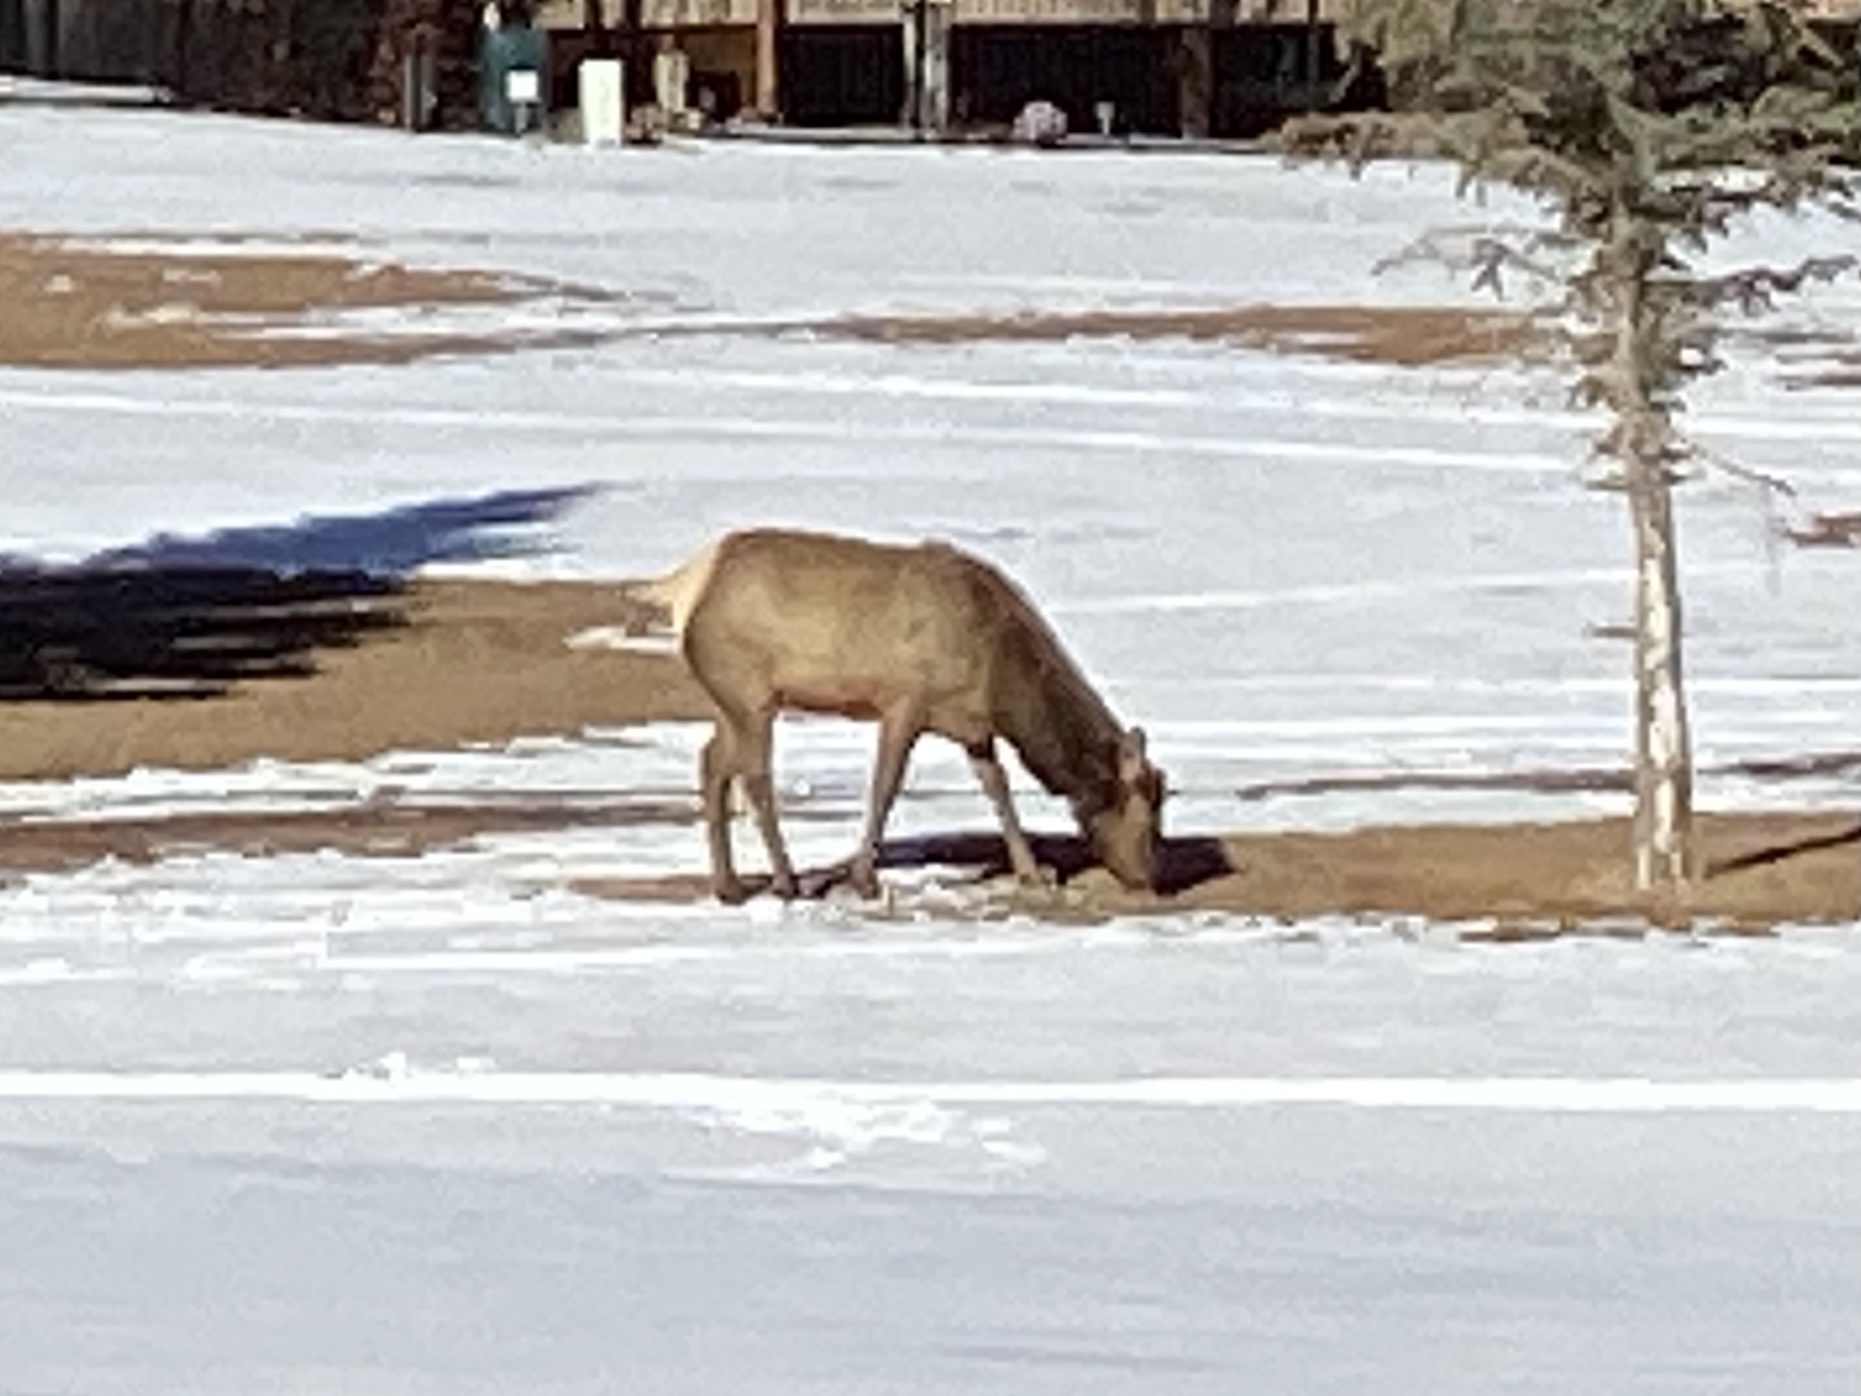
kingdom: Animalia
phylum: Chordata
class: Mammalia
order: Artiodactyla
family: Cervidae
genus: Cervus
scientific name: Cervus elaphus
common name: Red deer
